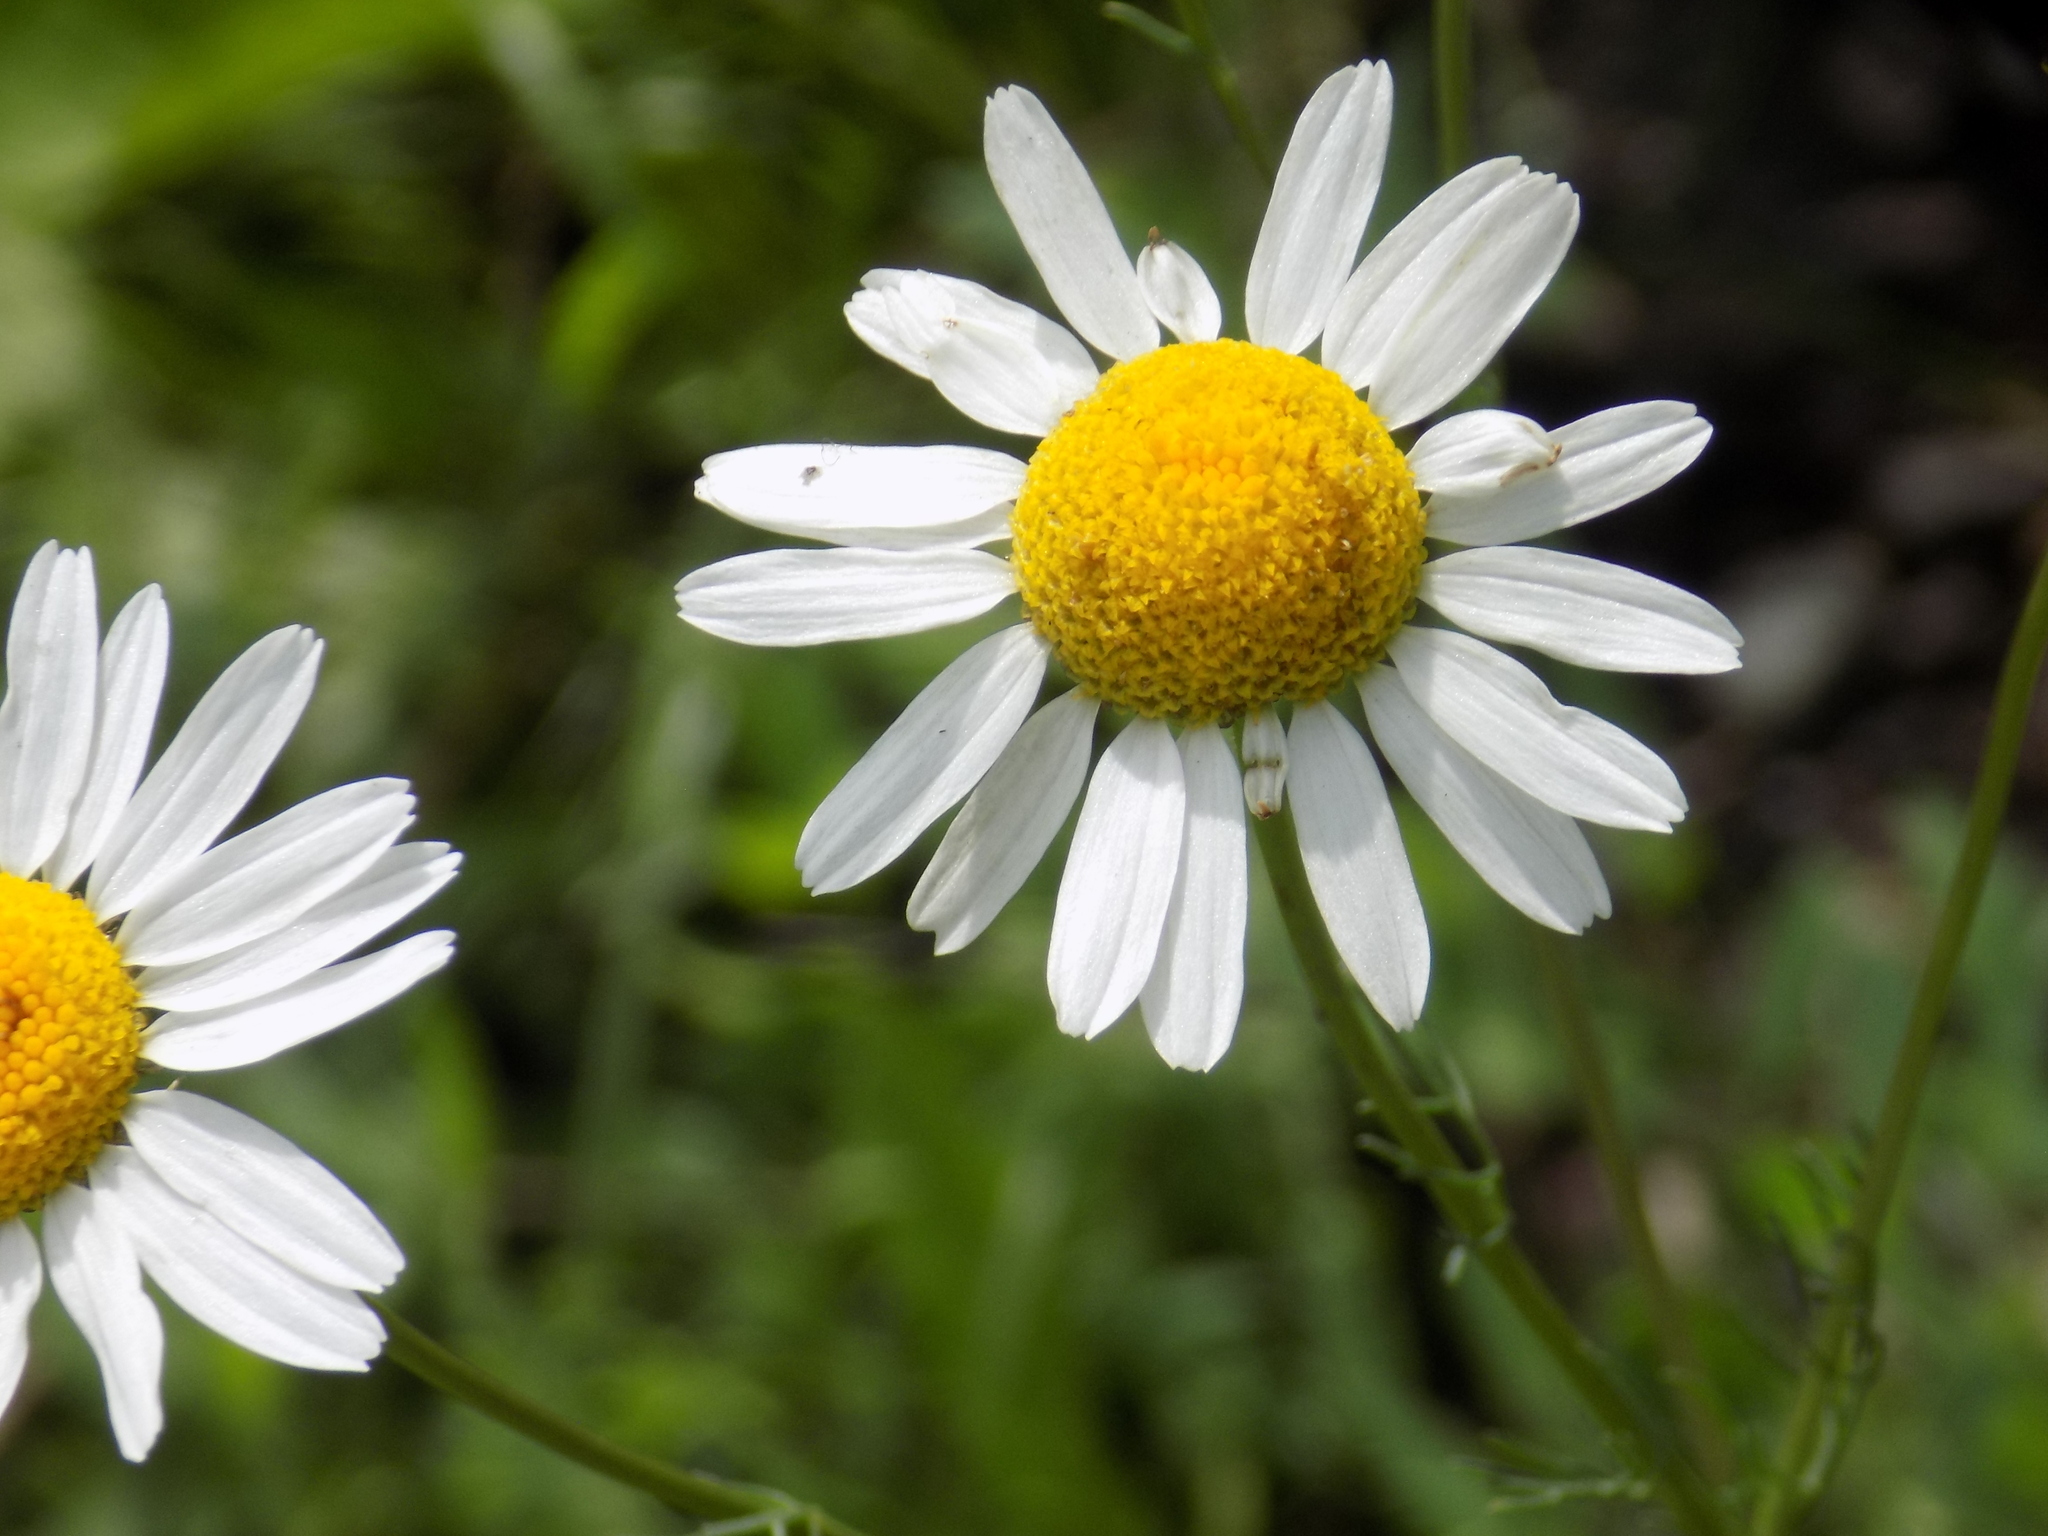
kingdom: Plantae
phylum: Tracheophyta
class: Magnoliopsida
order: Asterales
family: Asteraceae
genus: Tripleurospermum
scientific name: Tripleurospermum inodorum
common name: Scentless mayweed
